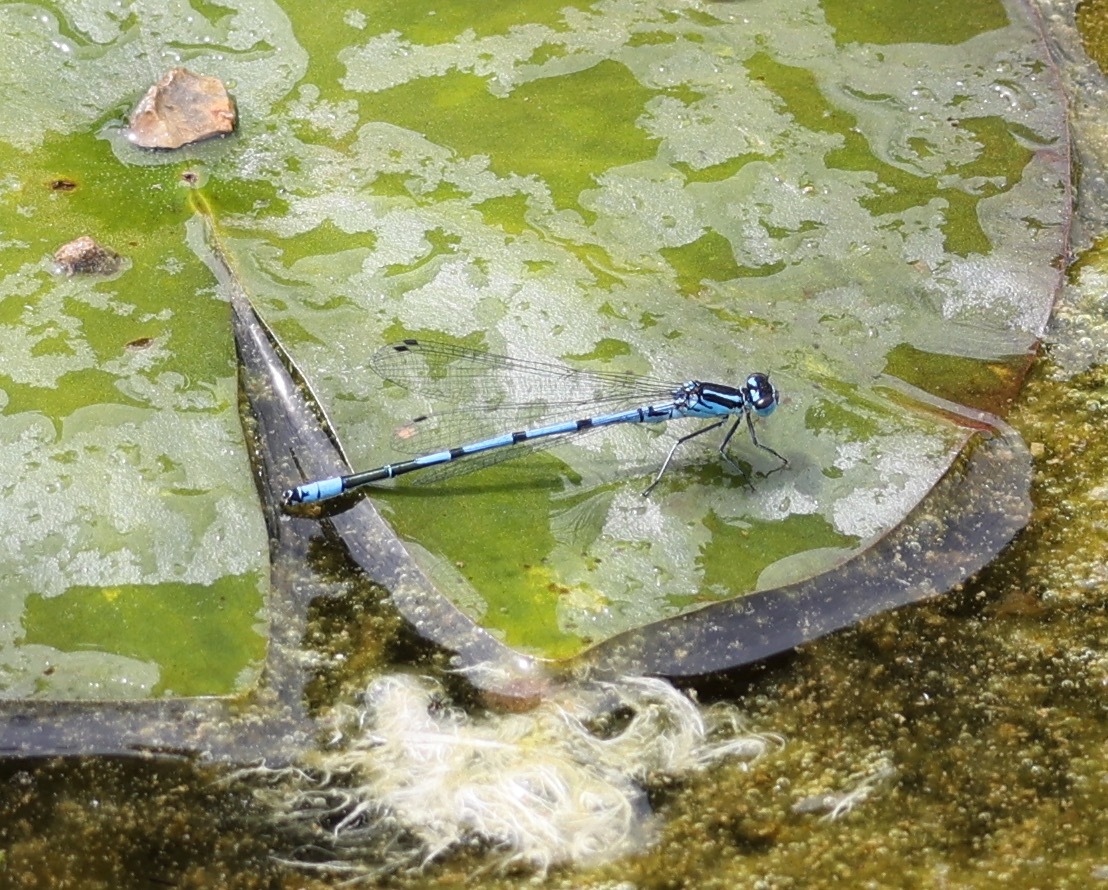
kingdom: Animalia
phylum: Arthropoda
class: Insecta
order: Odonata
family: Coenagrionidae
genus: Coenagrion
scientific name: Coenagrion puella
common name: Azure damselfly
